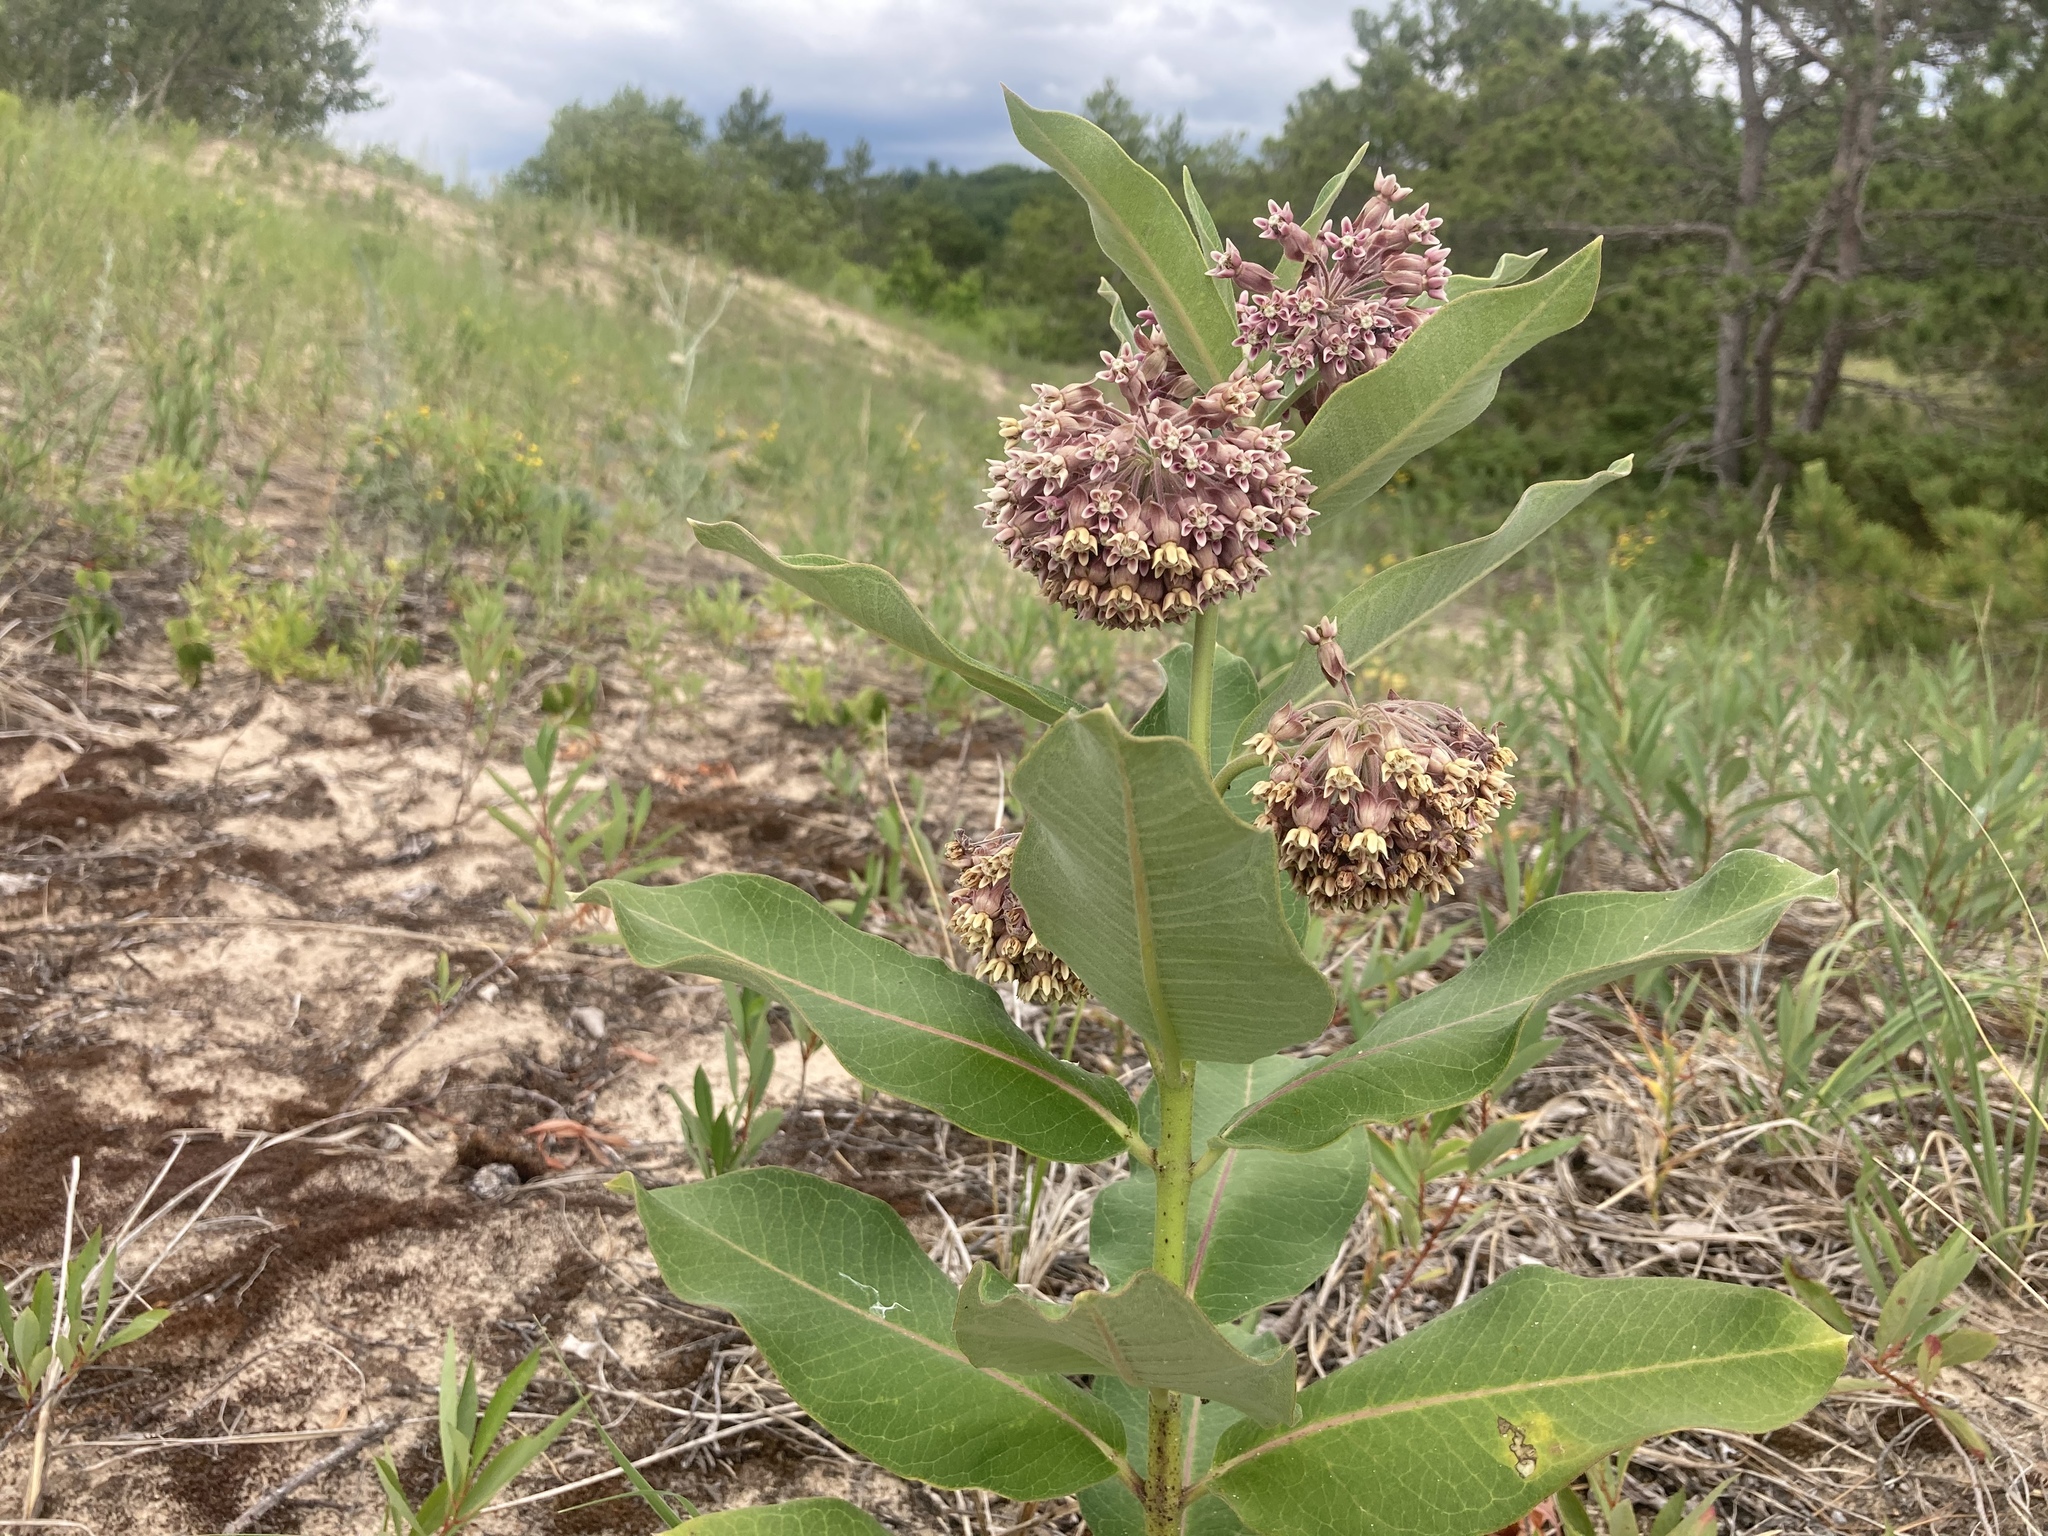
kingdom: Plantae
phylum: Tracheophyta
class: Magnoliopsida
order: Gentianales
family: Apocynaceae
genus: Asclepias
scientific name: Asclepias syriaca
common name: Common milkweed
